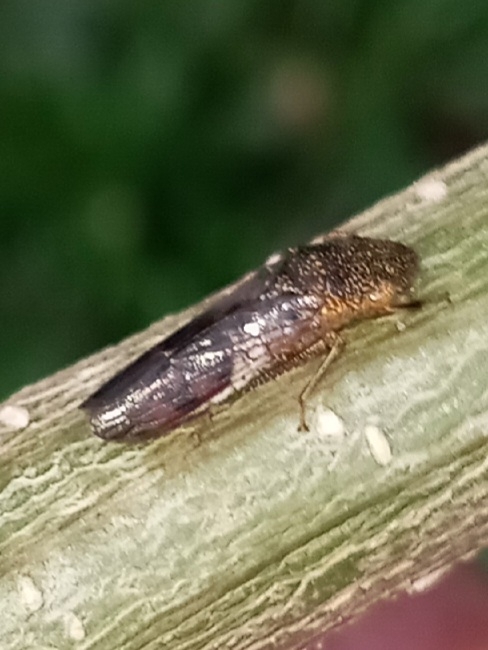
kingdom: Animalia
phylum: Arthropoda
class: Insecta
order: Hemiptera
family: Cicadellidae
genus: Homalodisca
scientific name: Homalodisca vitripennis
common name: Glassy-winged sharpshooter
